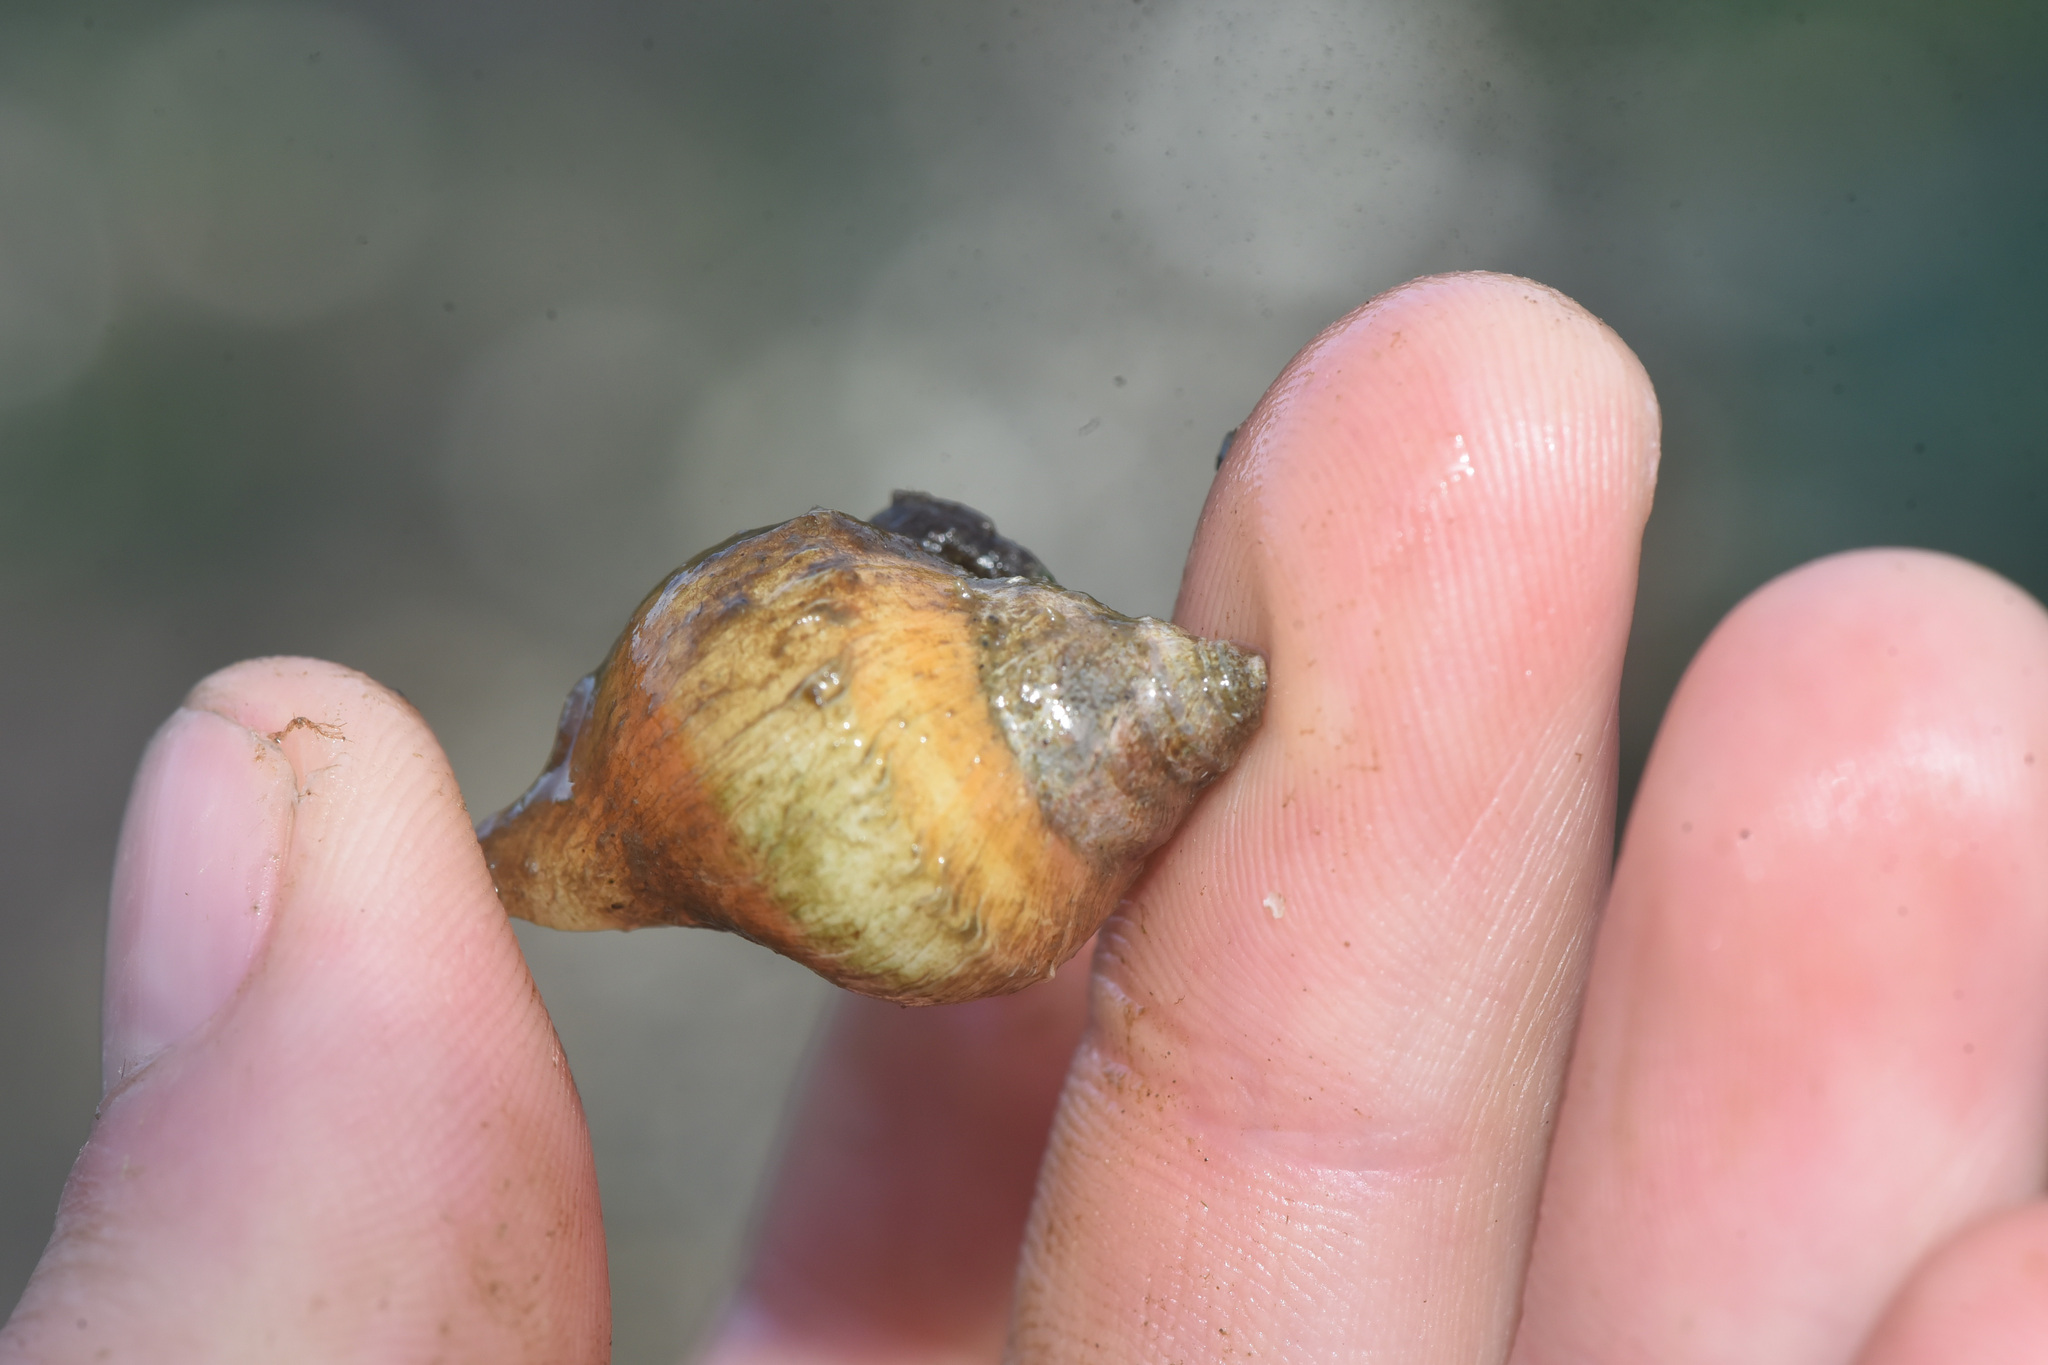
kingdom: Animalia
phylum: Mollusca
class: Gastropoda
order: Neogastropoda
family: Muricidae
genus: Nucella
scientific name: Nucella lamellosa
